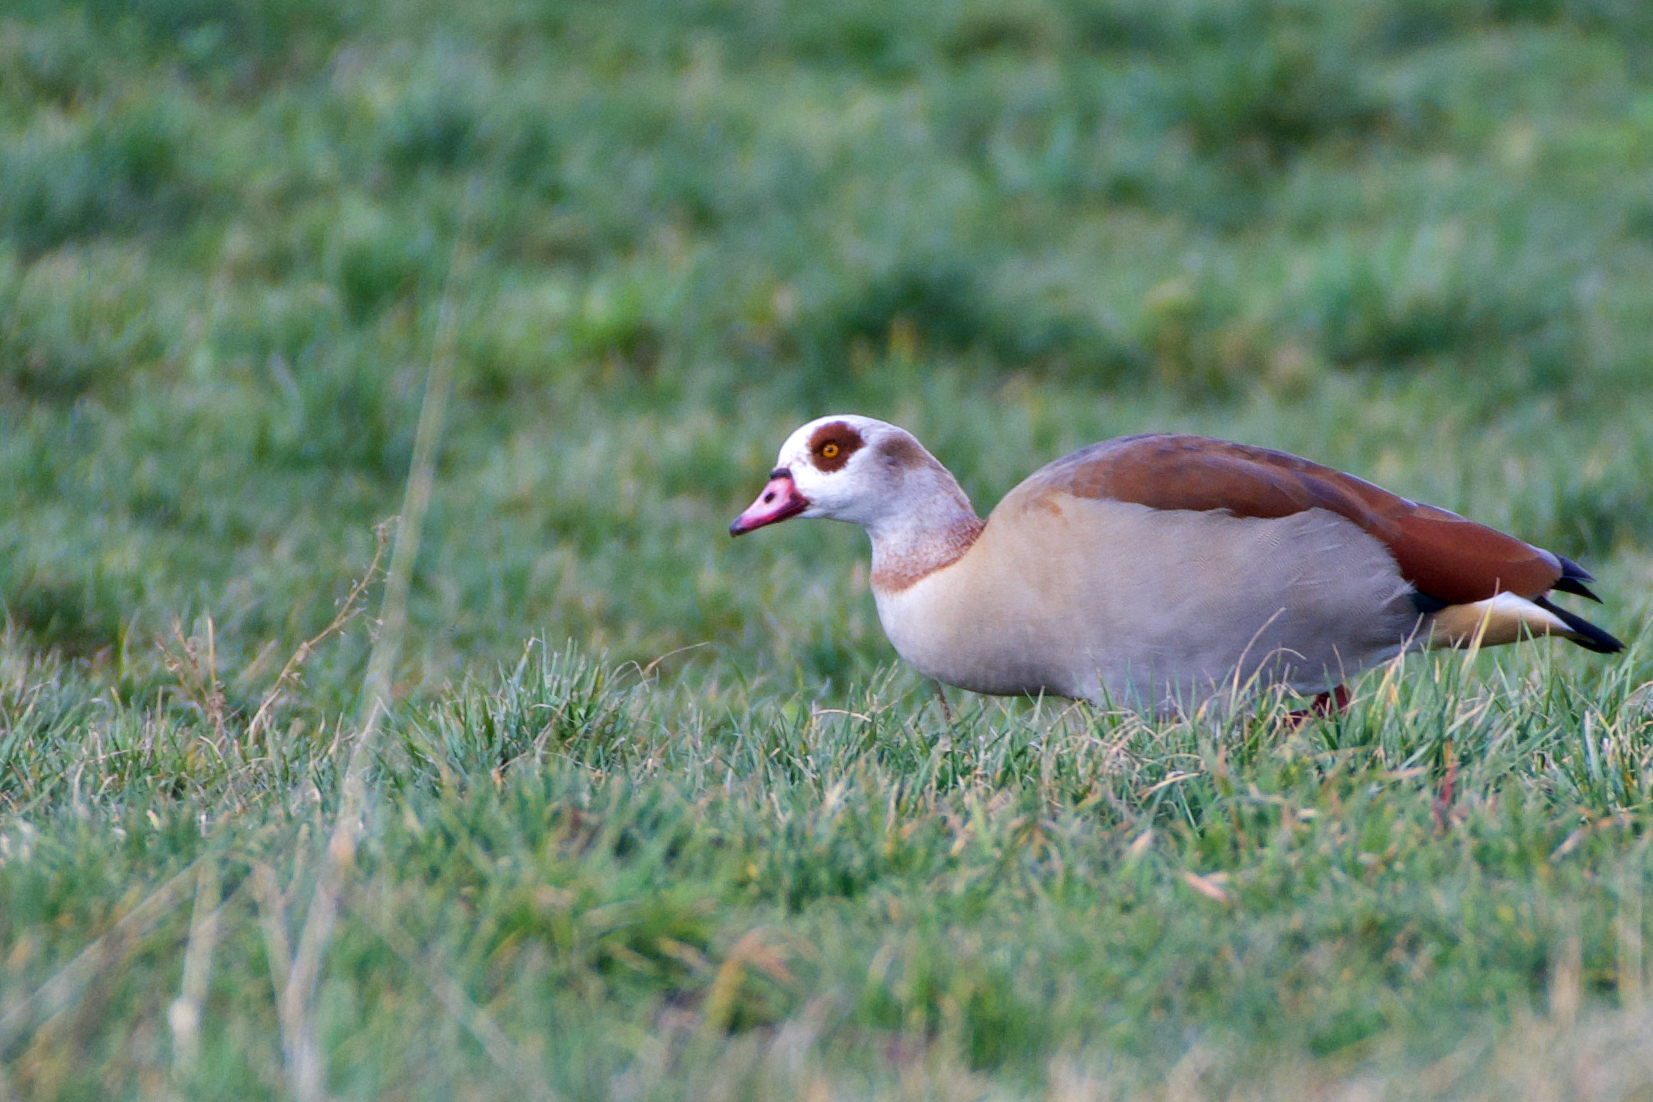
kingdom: Animalia
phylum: Chordata
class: Aves
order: Anseriformes
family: Anatidae
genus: Alopochen
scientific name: Alopochen aegyptiaca
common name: Egyptian goose
